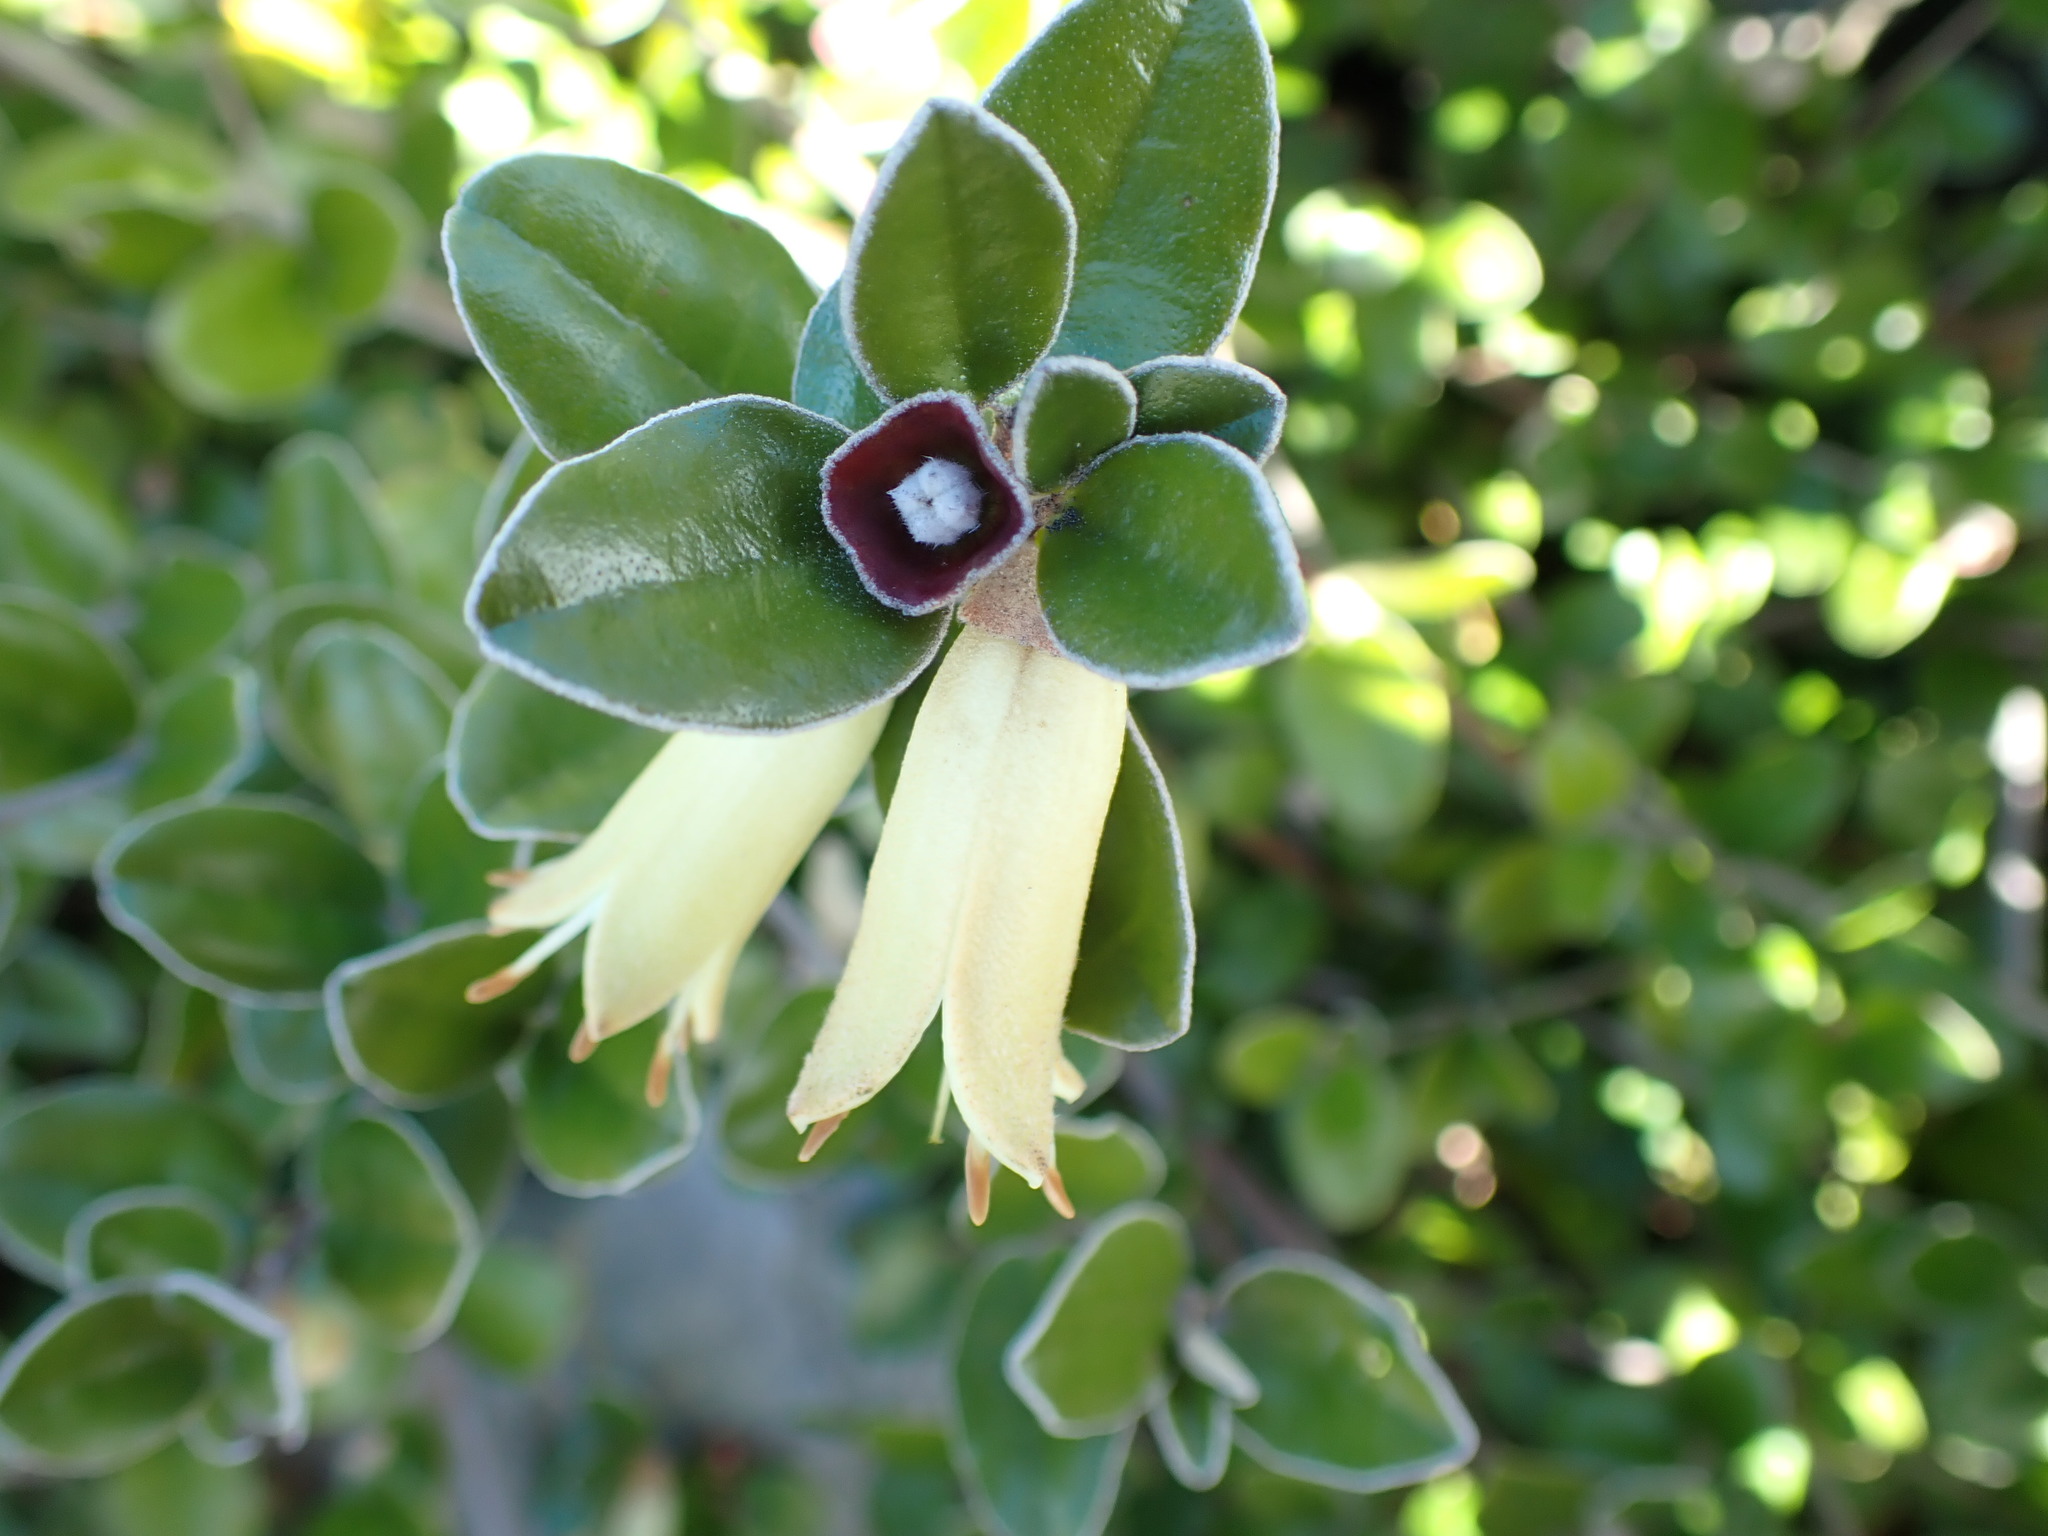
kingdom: Plantae
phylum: Tracheophyta
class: Magnoliopsida
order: Sapindales
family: Rutaceae
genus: Correa
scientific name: Correa backhouseana
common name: Tasmanian-fuchsia
